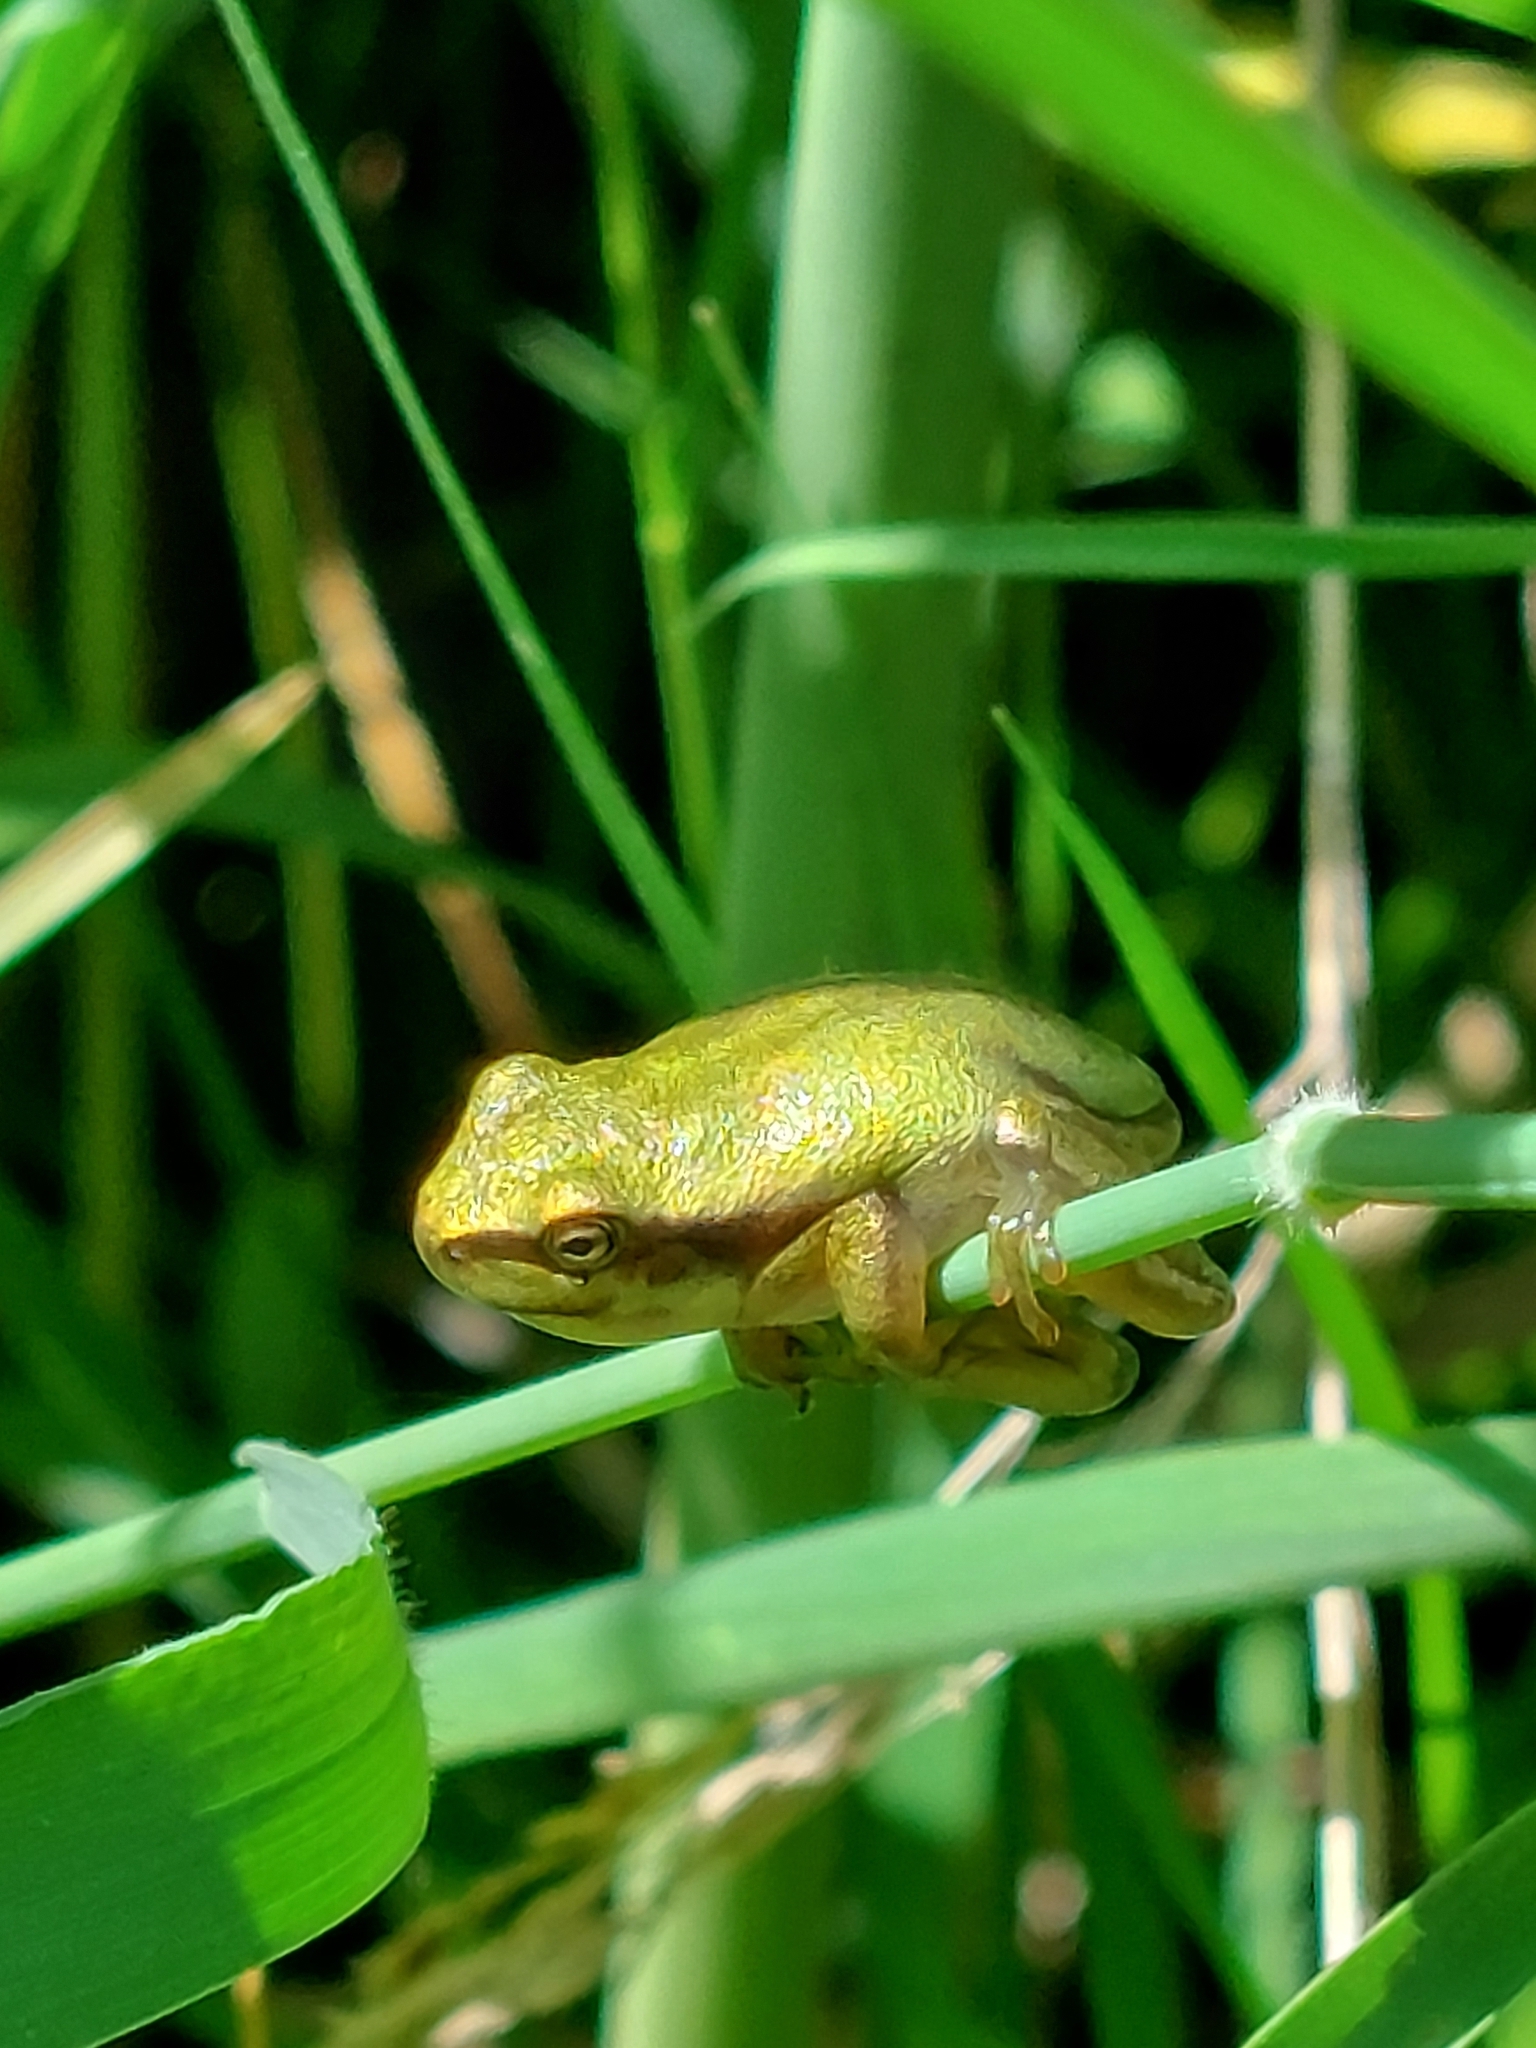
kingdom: Animalia
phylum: Chordata
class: Amphibia
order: Anura
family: Hylidae
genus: Hyla
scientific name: Hyla arborea
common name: Common tree frog
